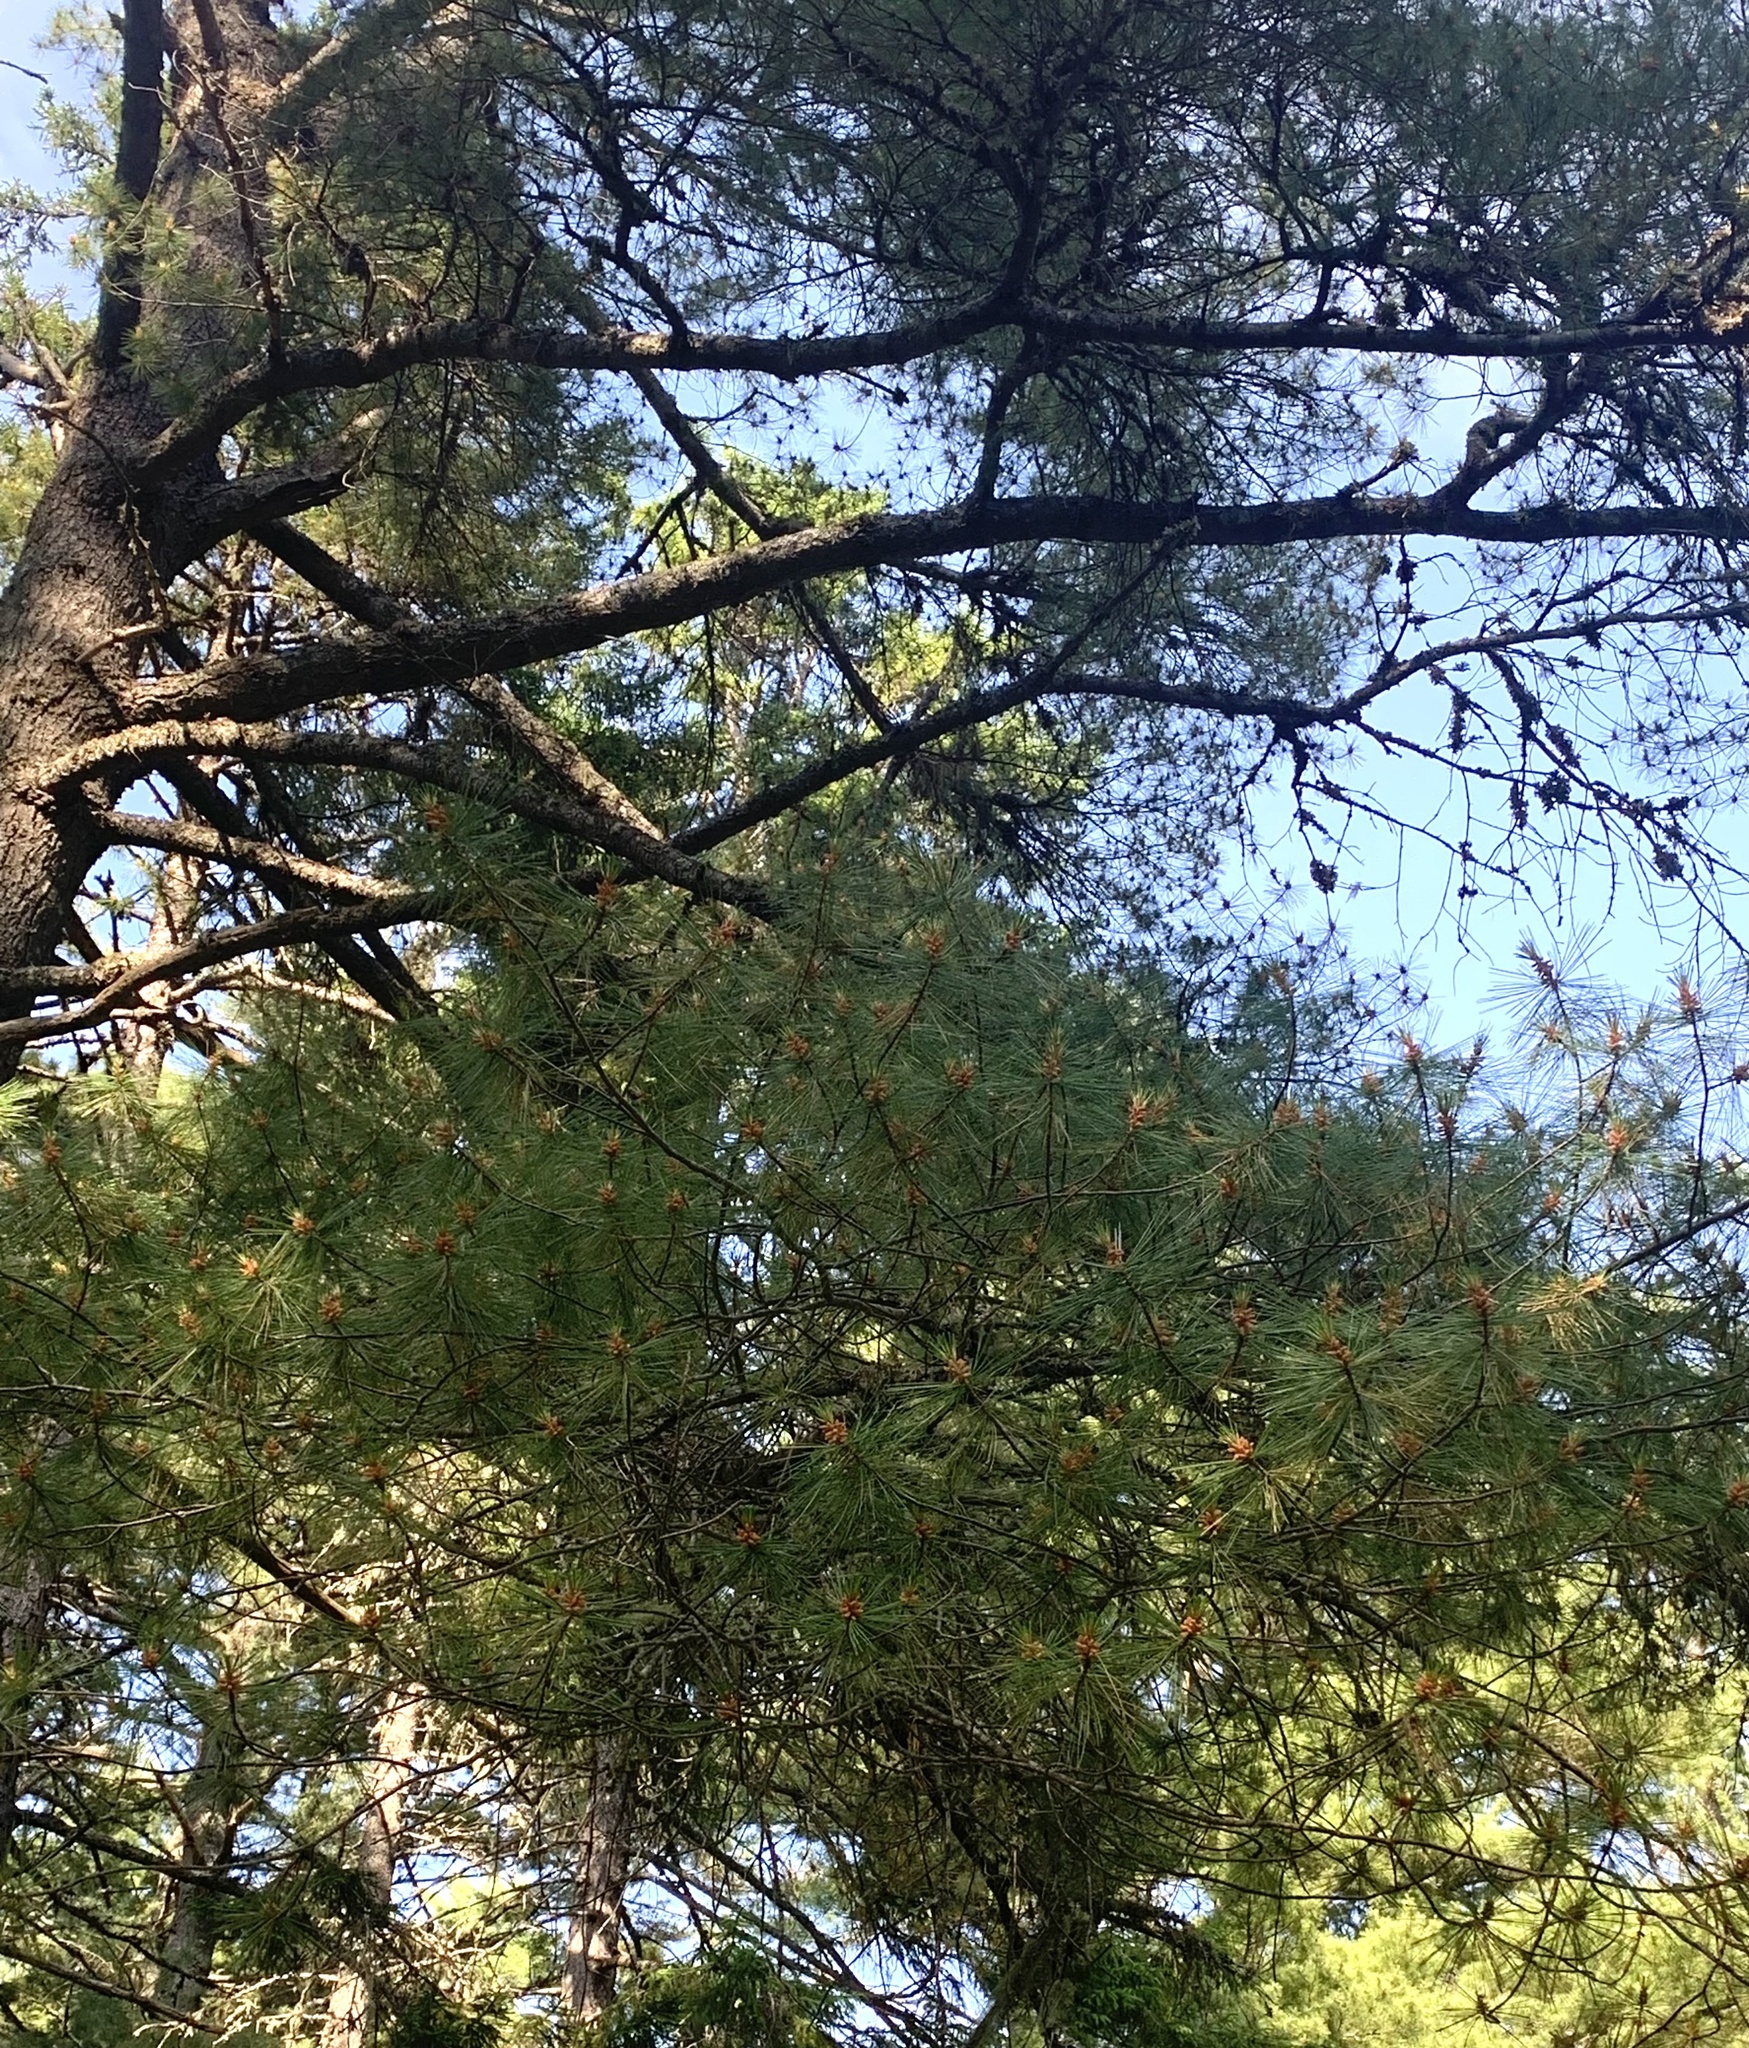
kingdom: Plantae
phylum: Tracheophyta
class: Pinopsida
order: Pinales
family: Pinaceae
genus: Pinus
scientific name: Pinus strobus
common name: Weymouth pine
